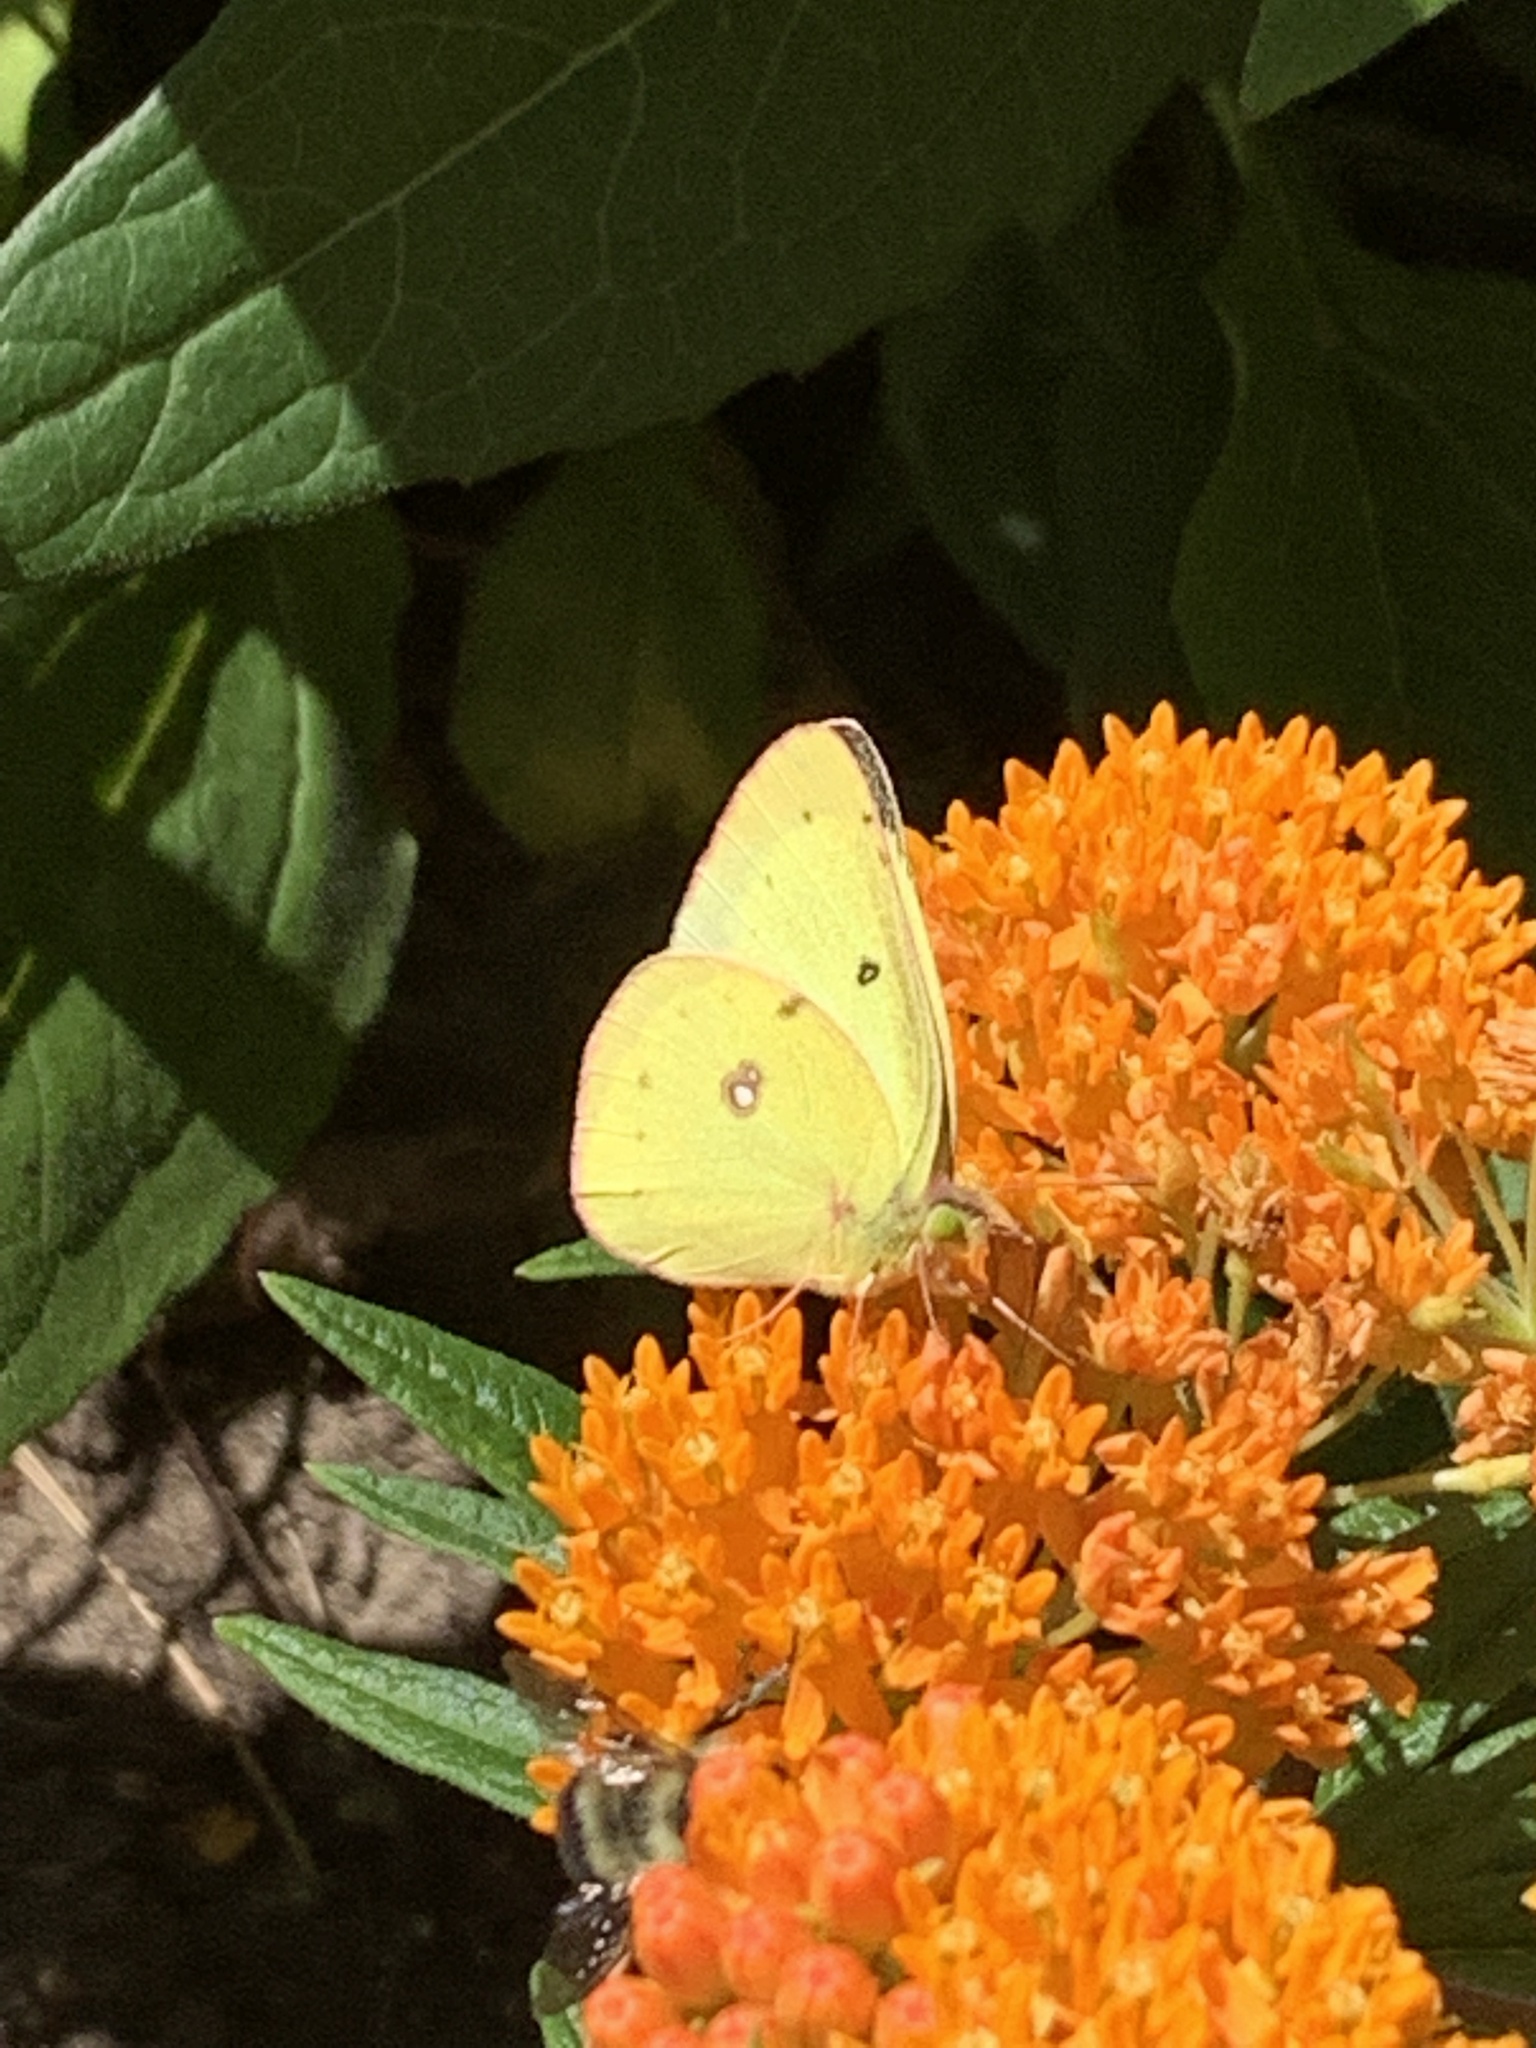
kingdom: Animalia
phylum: Arthropoda
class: Insecta
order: Lepidoptera
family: Pieridae
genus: Colias
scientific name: Colias philodice
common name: Clouded sulphur
